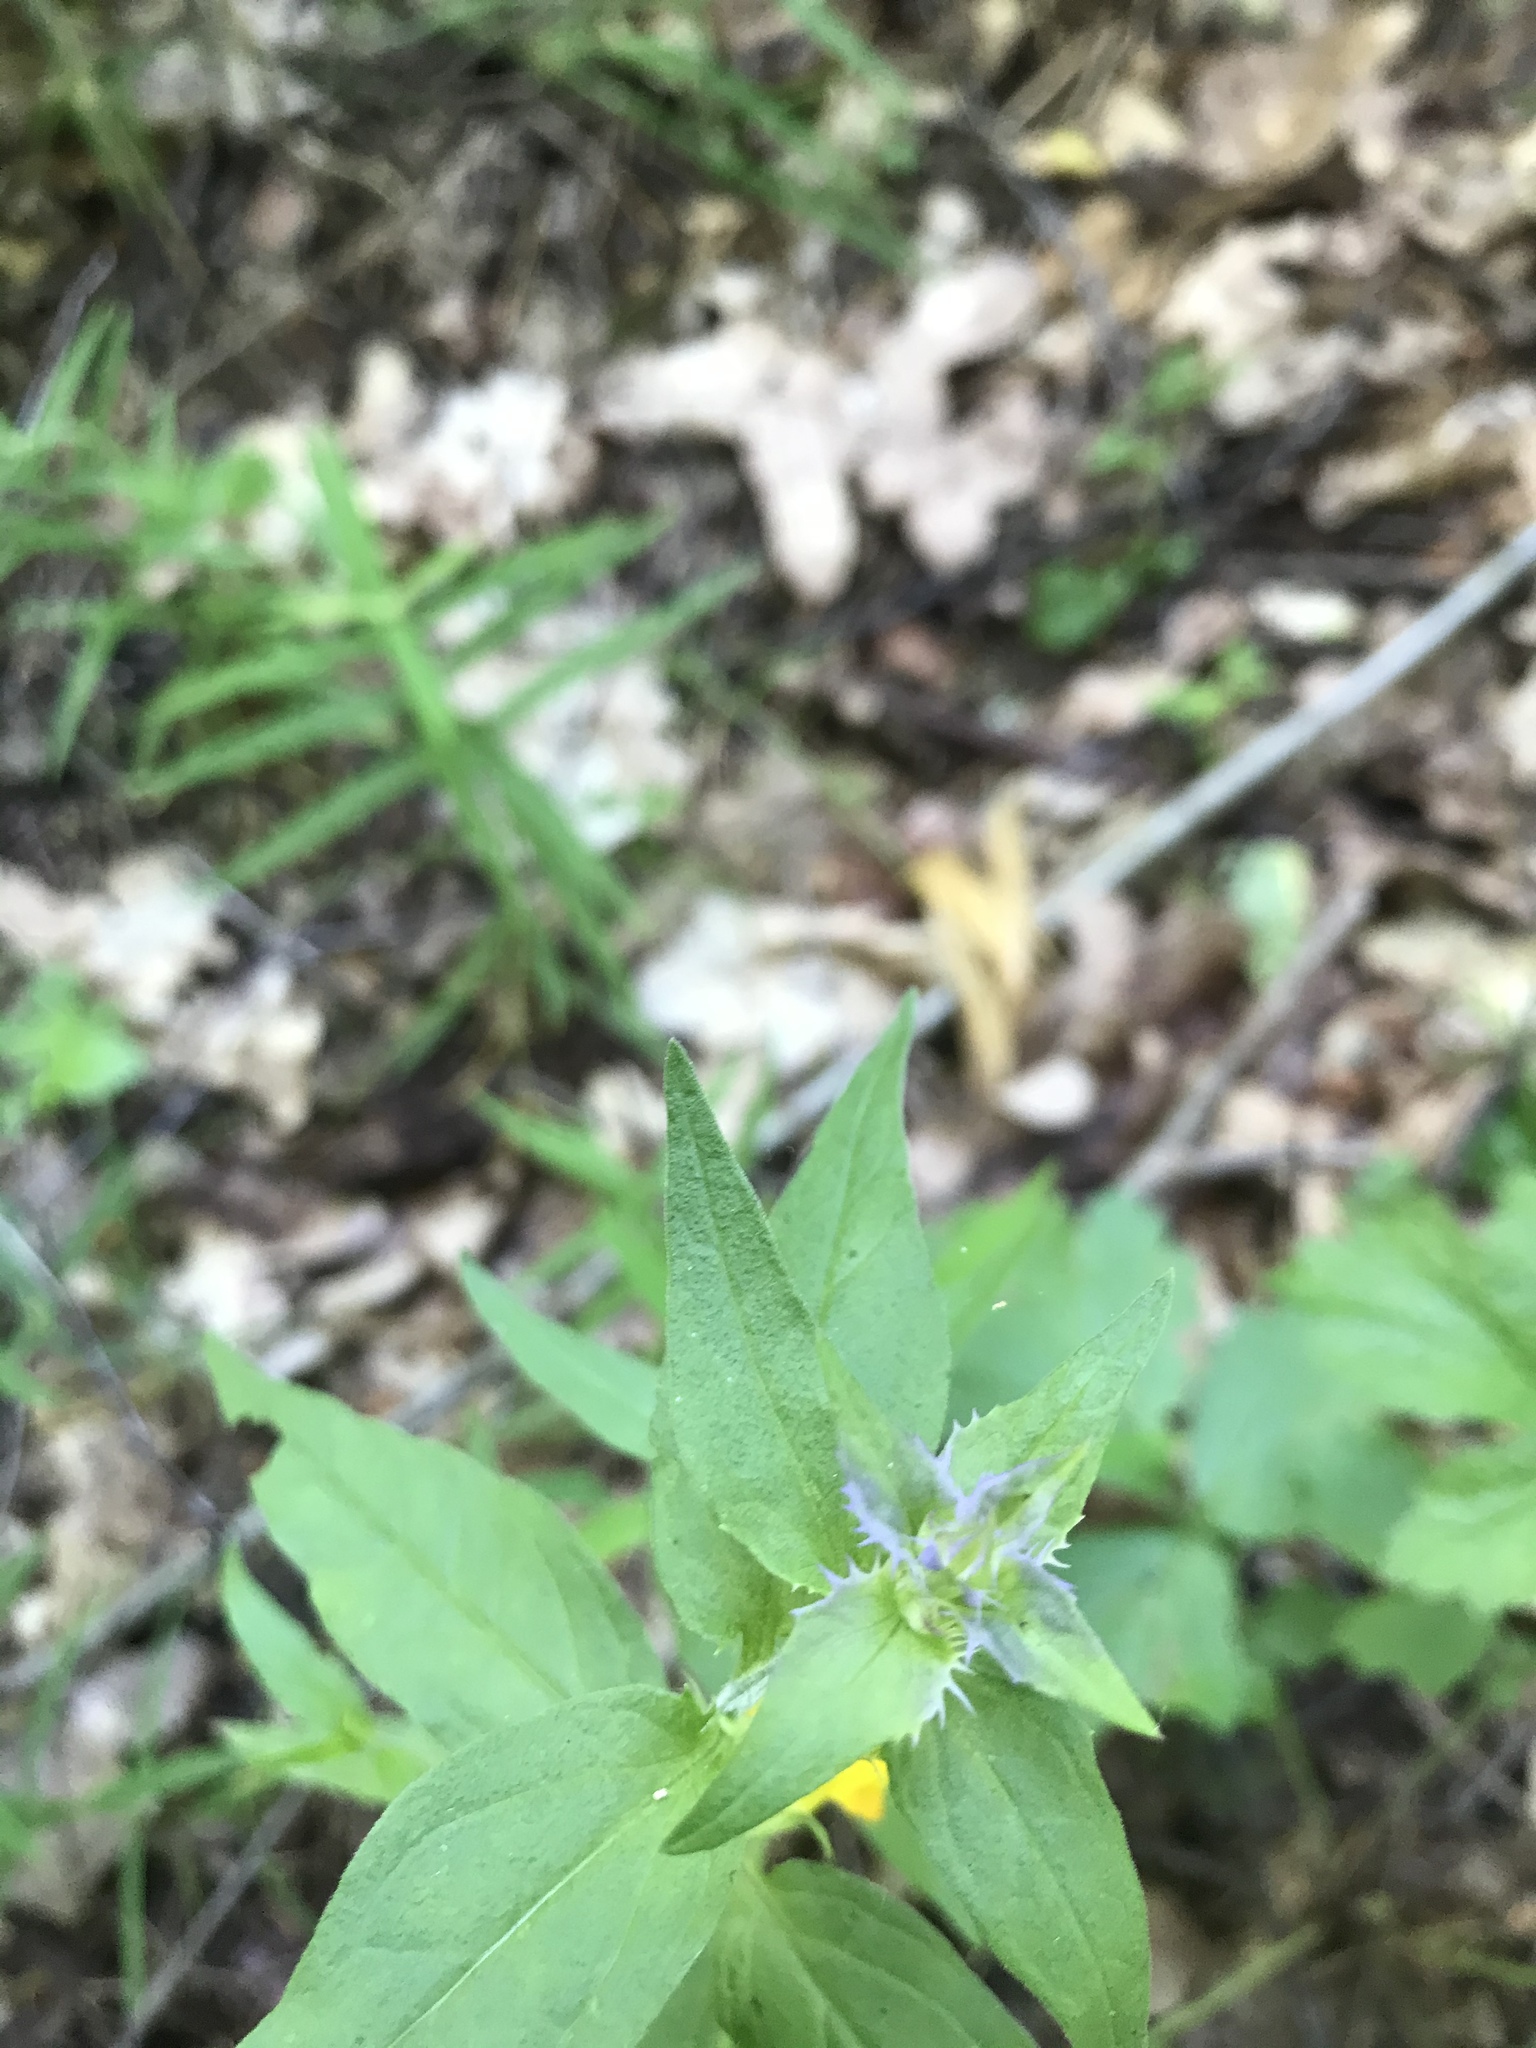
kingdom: Plantae
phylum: Tracheophyta
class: Magnoliopsida
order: Lamiales
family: Orobanchaceae
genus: Melampyrum
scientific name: Melampyrum nemorosum
